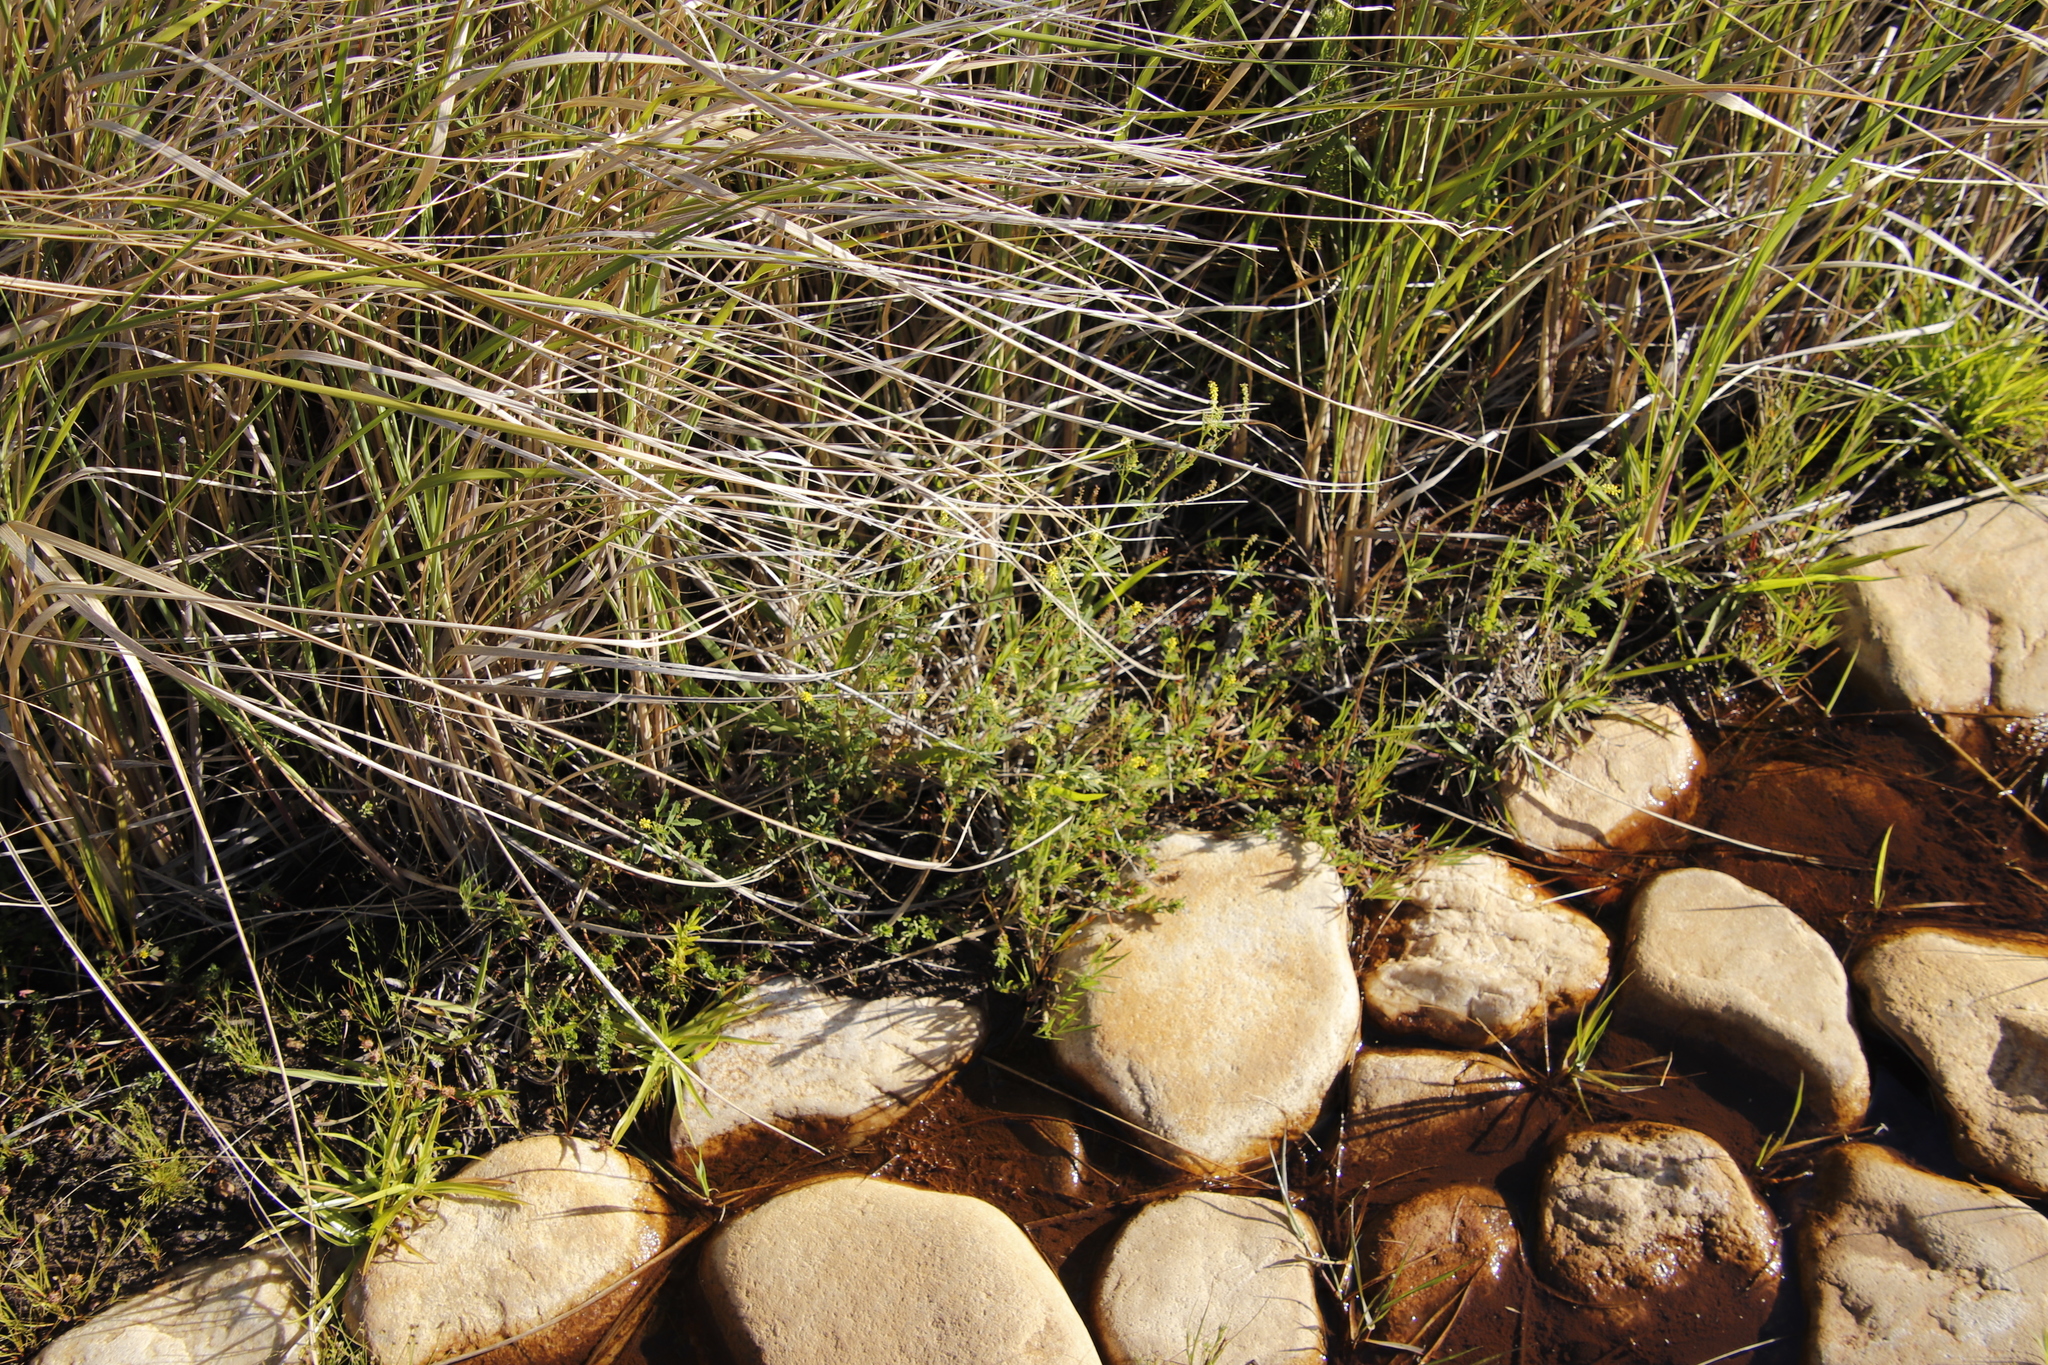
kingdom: Plantae
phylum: Tracheophyta
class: Magnoliopsida
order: Fabales
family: Fabaceae
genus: Melilotus
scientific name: Melilotus indicus
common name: Small melilot
